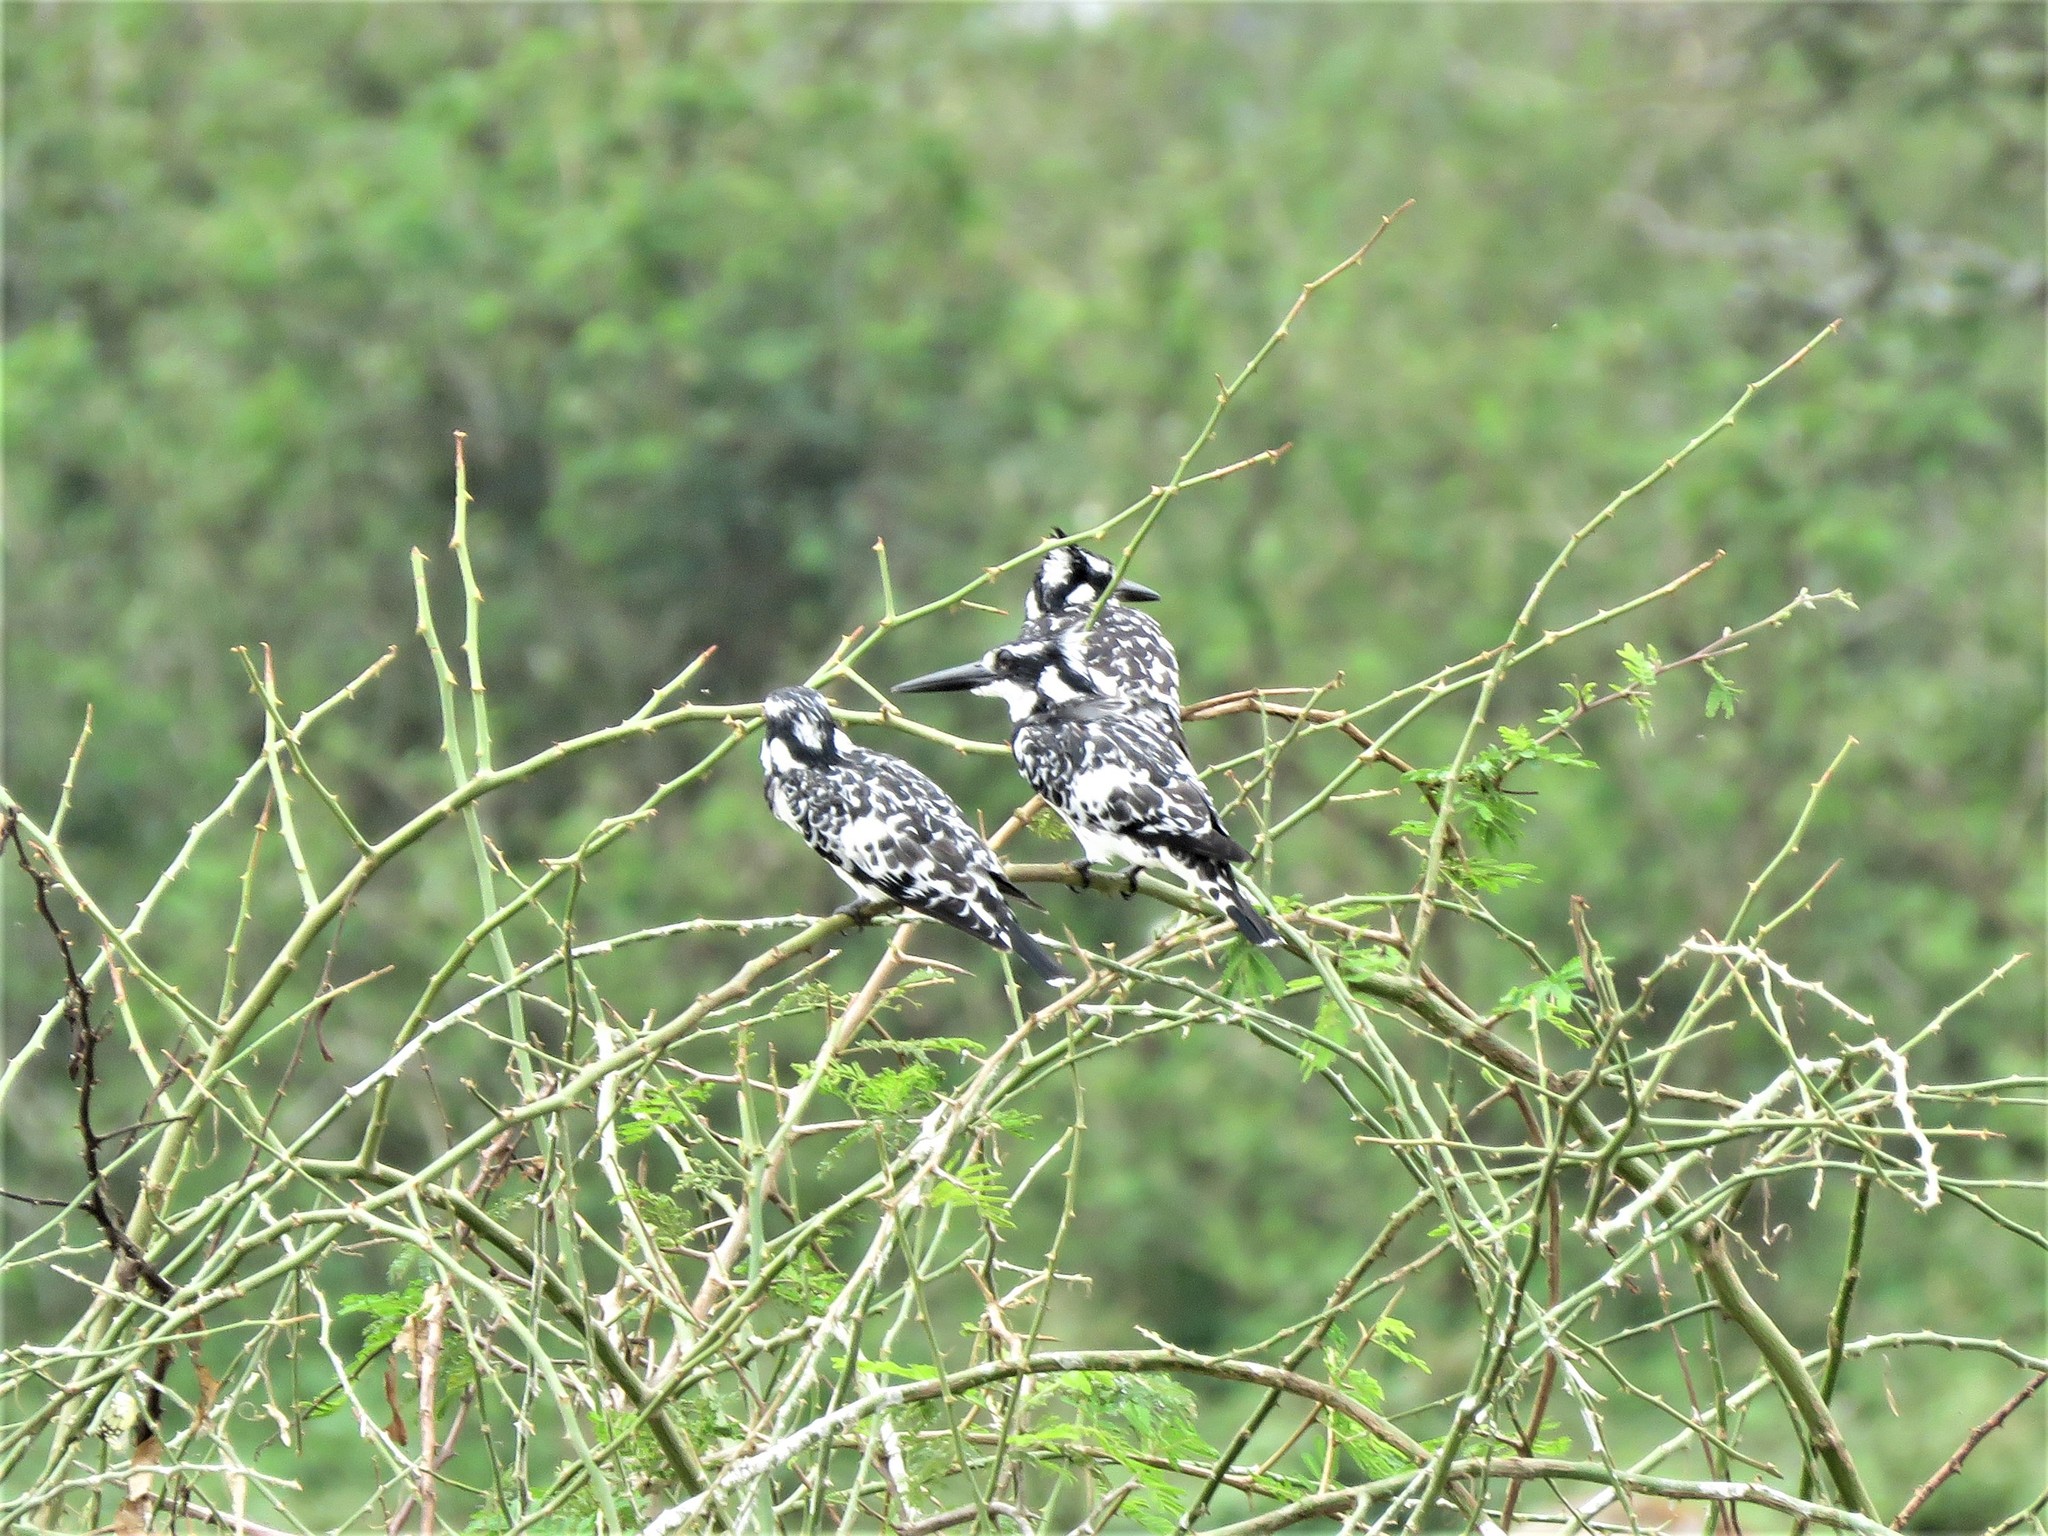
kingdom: Animalia
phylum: Chordata
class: Aves
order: Coraciiformes
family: Alcedinidae
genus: Ceryle
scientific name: Ceryle rudis
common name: Pied kingfisher
